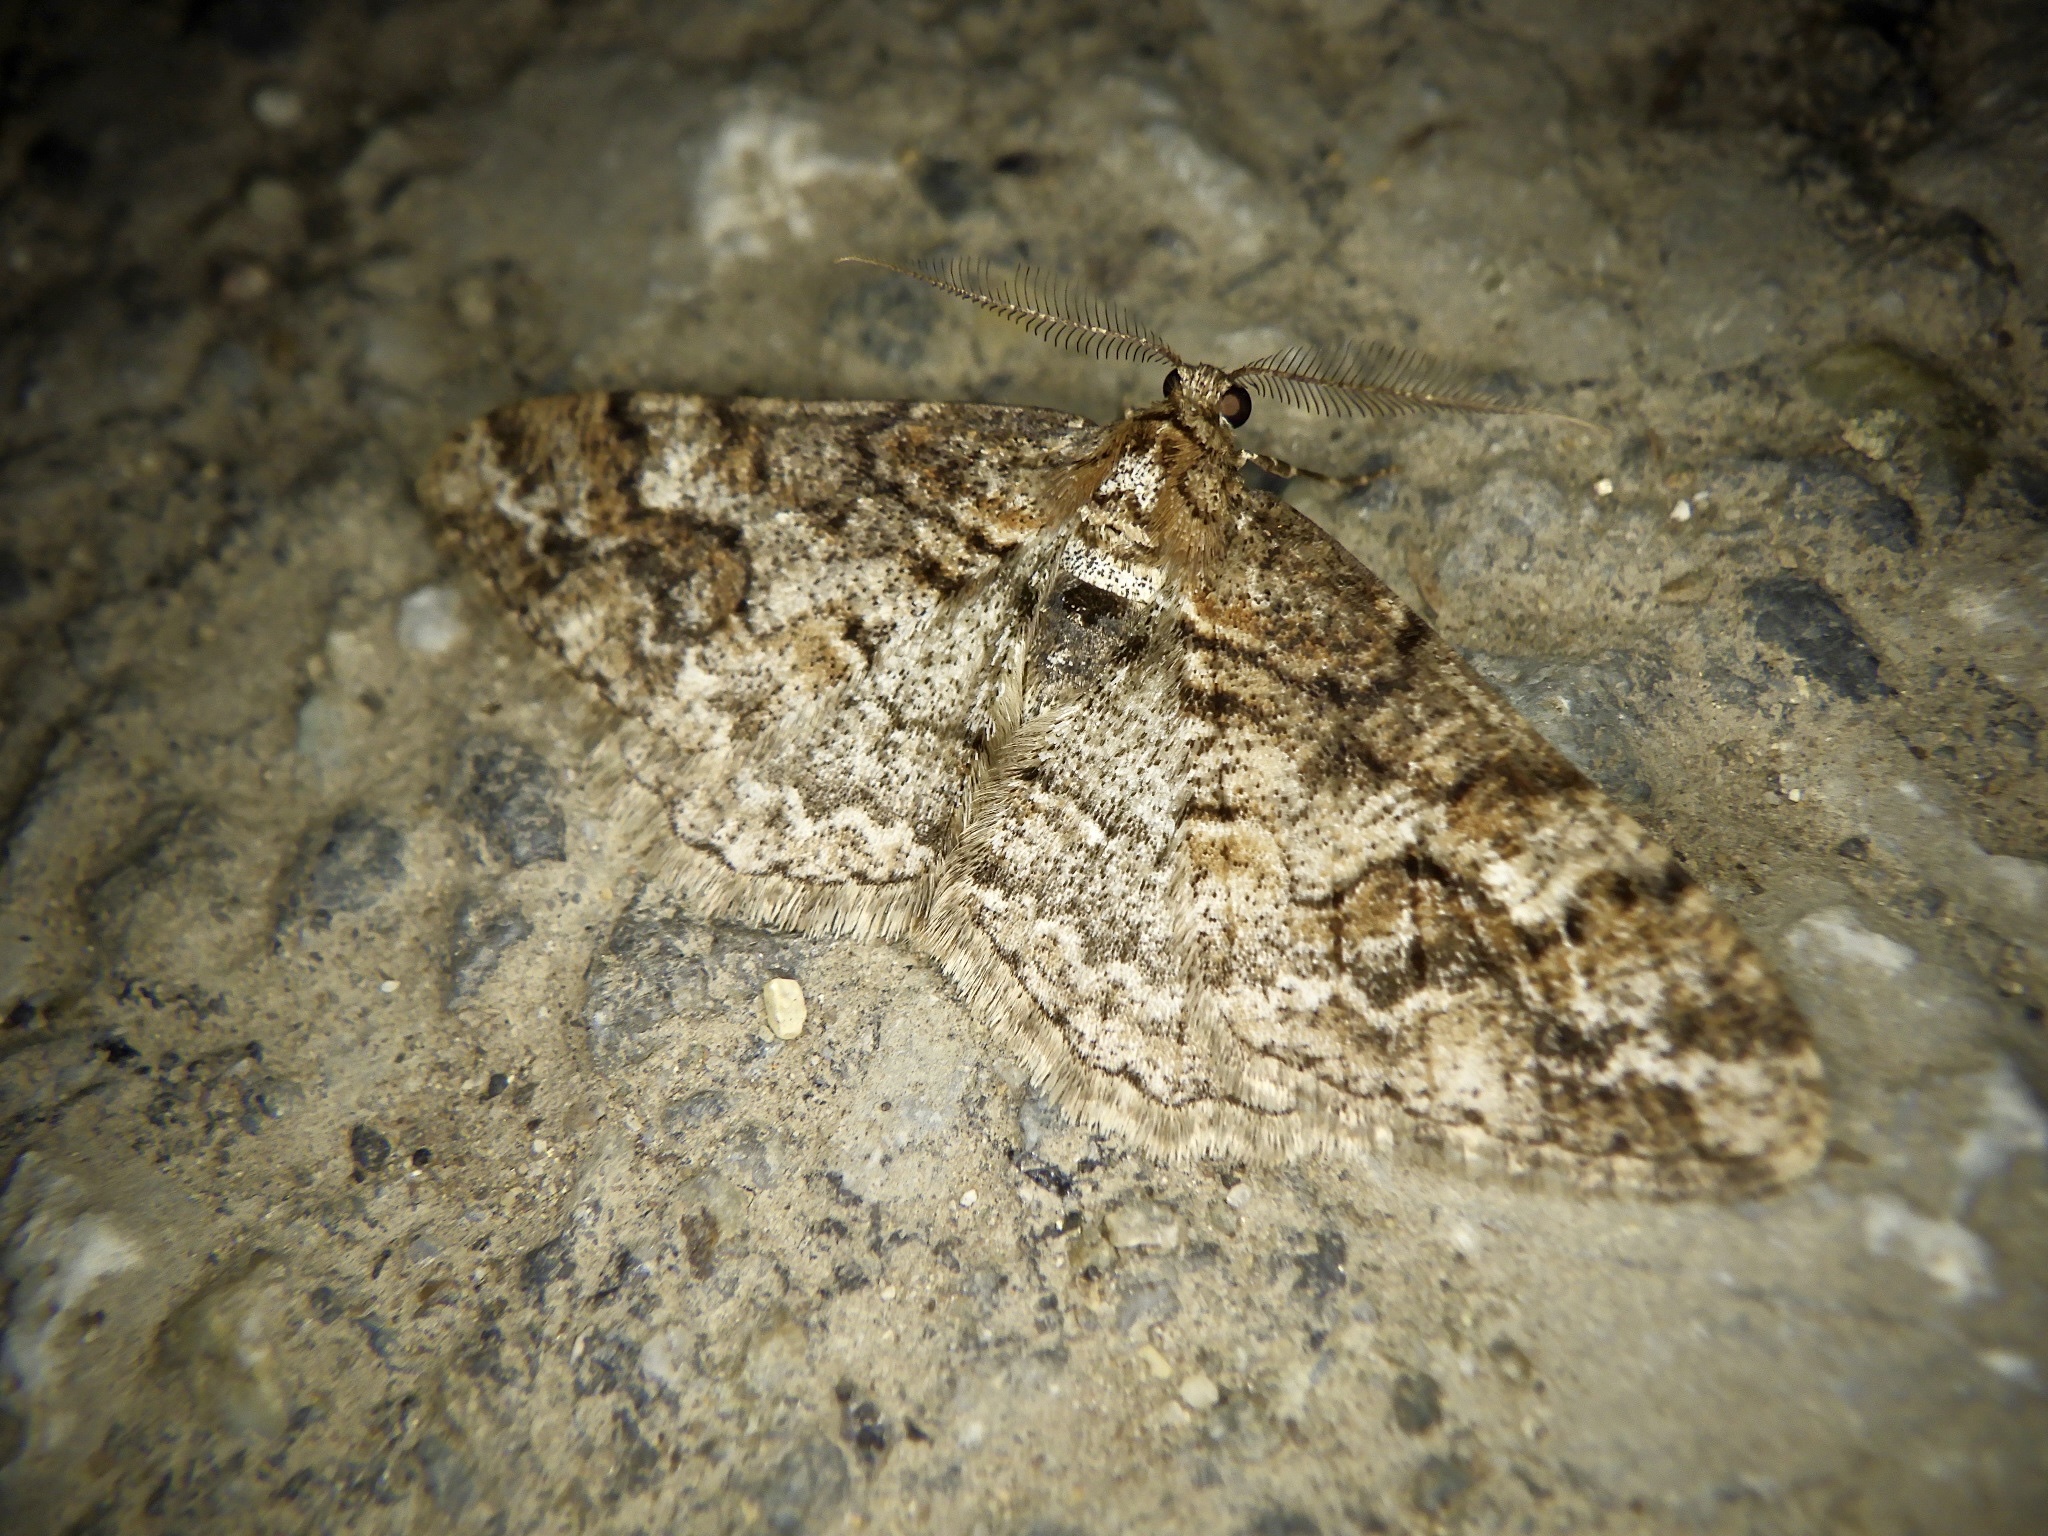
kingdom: Animalia
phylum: Arthropoda
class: Insecta
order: Lepidoptera
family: Geometridae
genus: Pseuderannis
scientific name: Pseuderannis lomozemia
